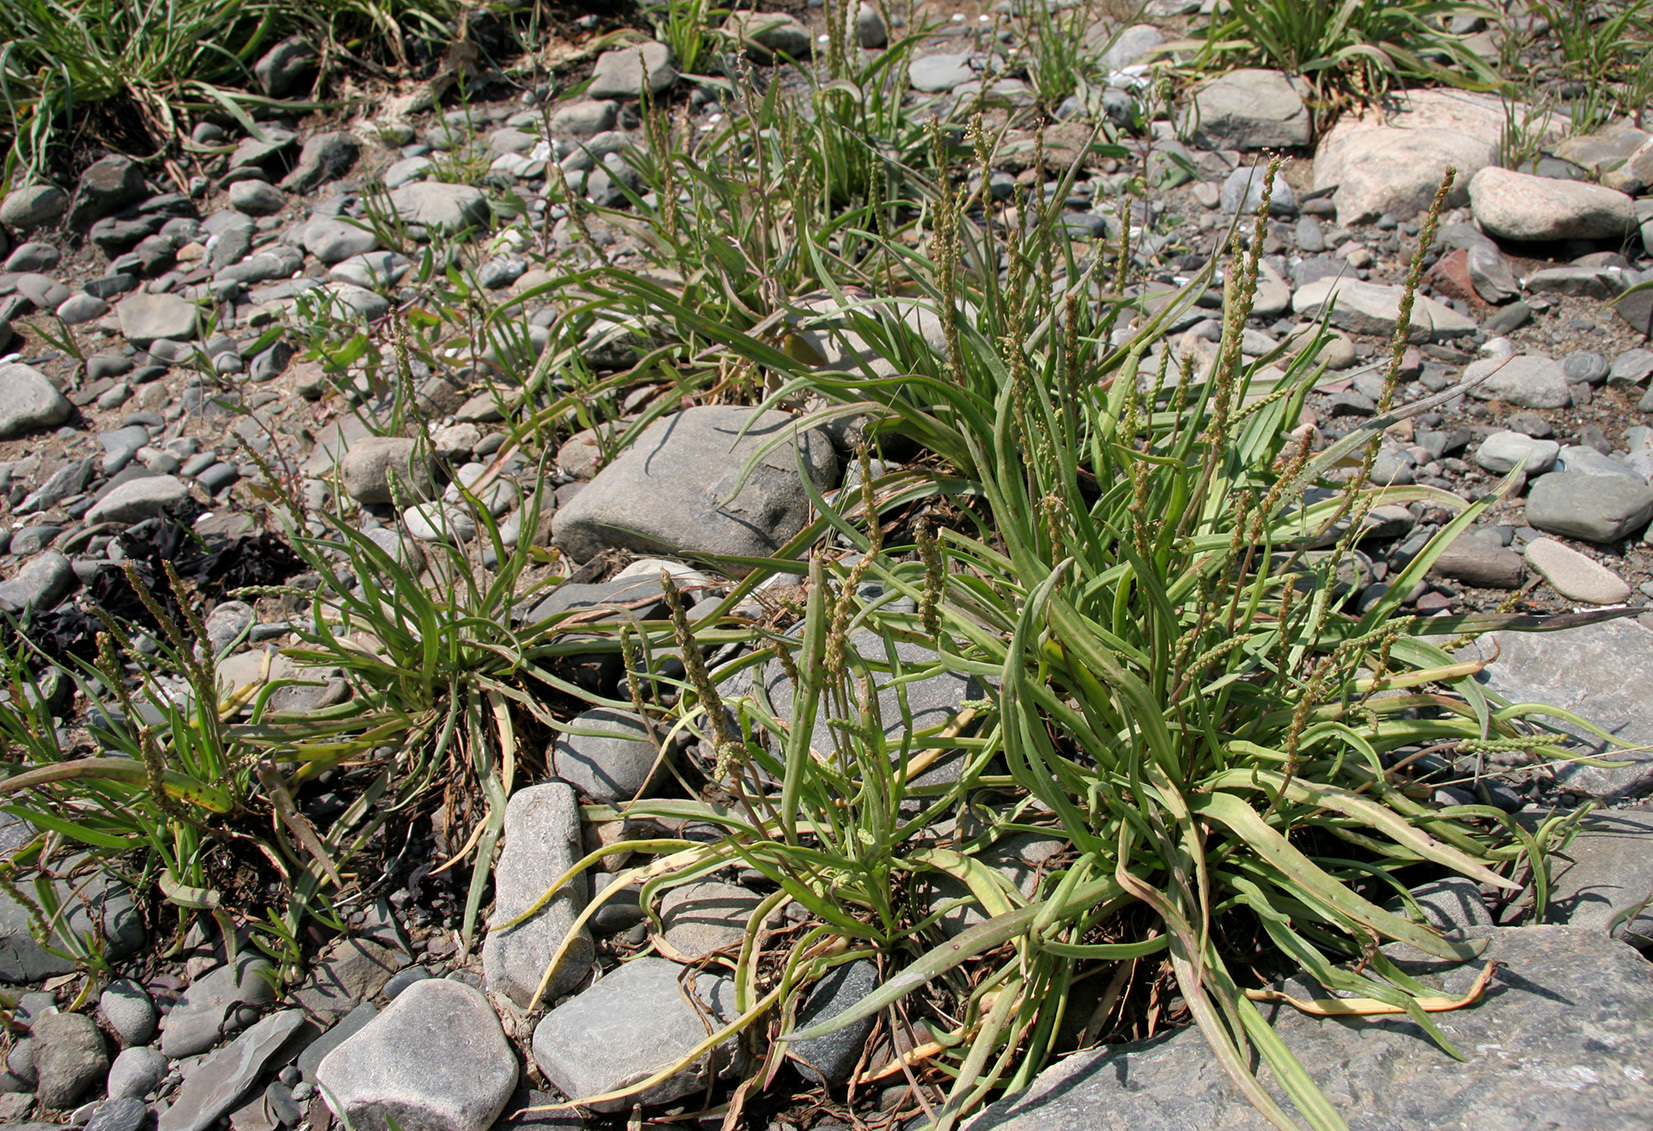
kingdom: Plantae
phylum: Tracheophyta
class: Magnoliopsida
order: Lamiales
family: Plantaginaceae
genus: Plantago
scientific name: Plantago maritima
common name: Sea plantain
